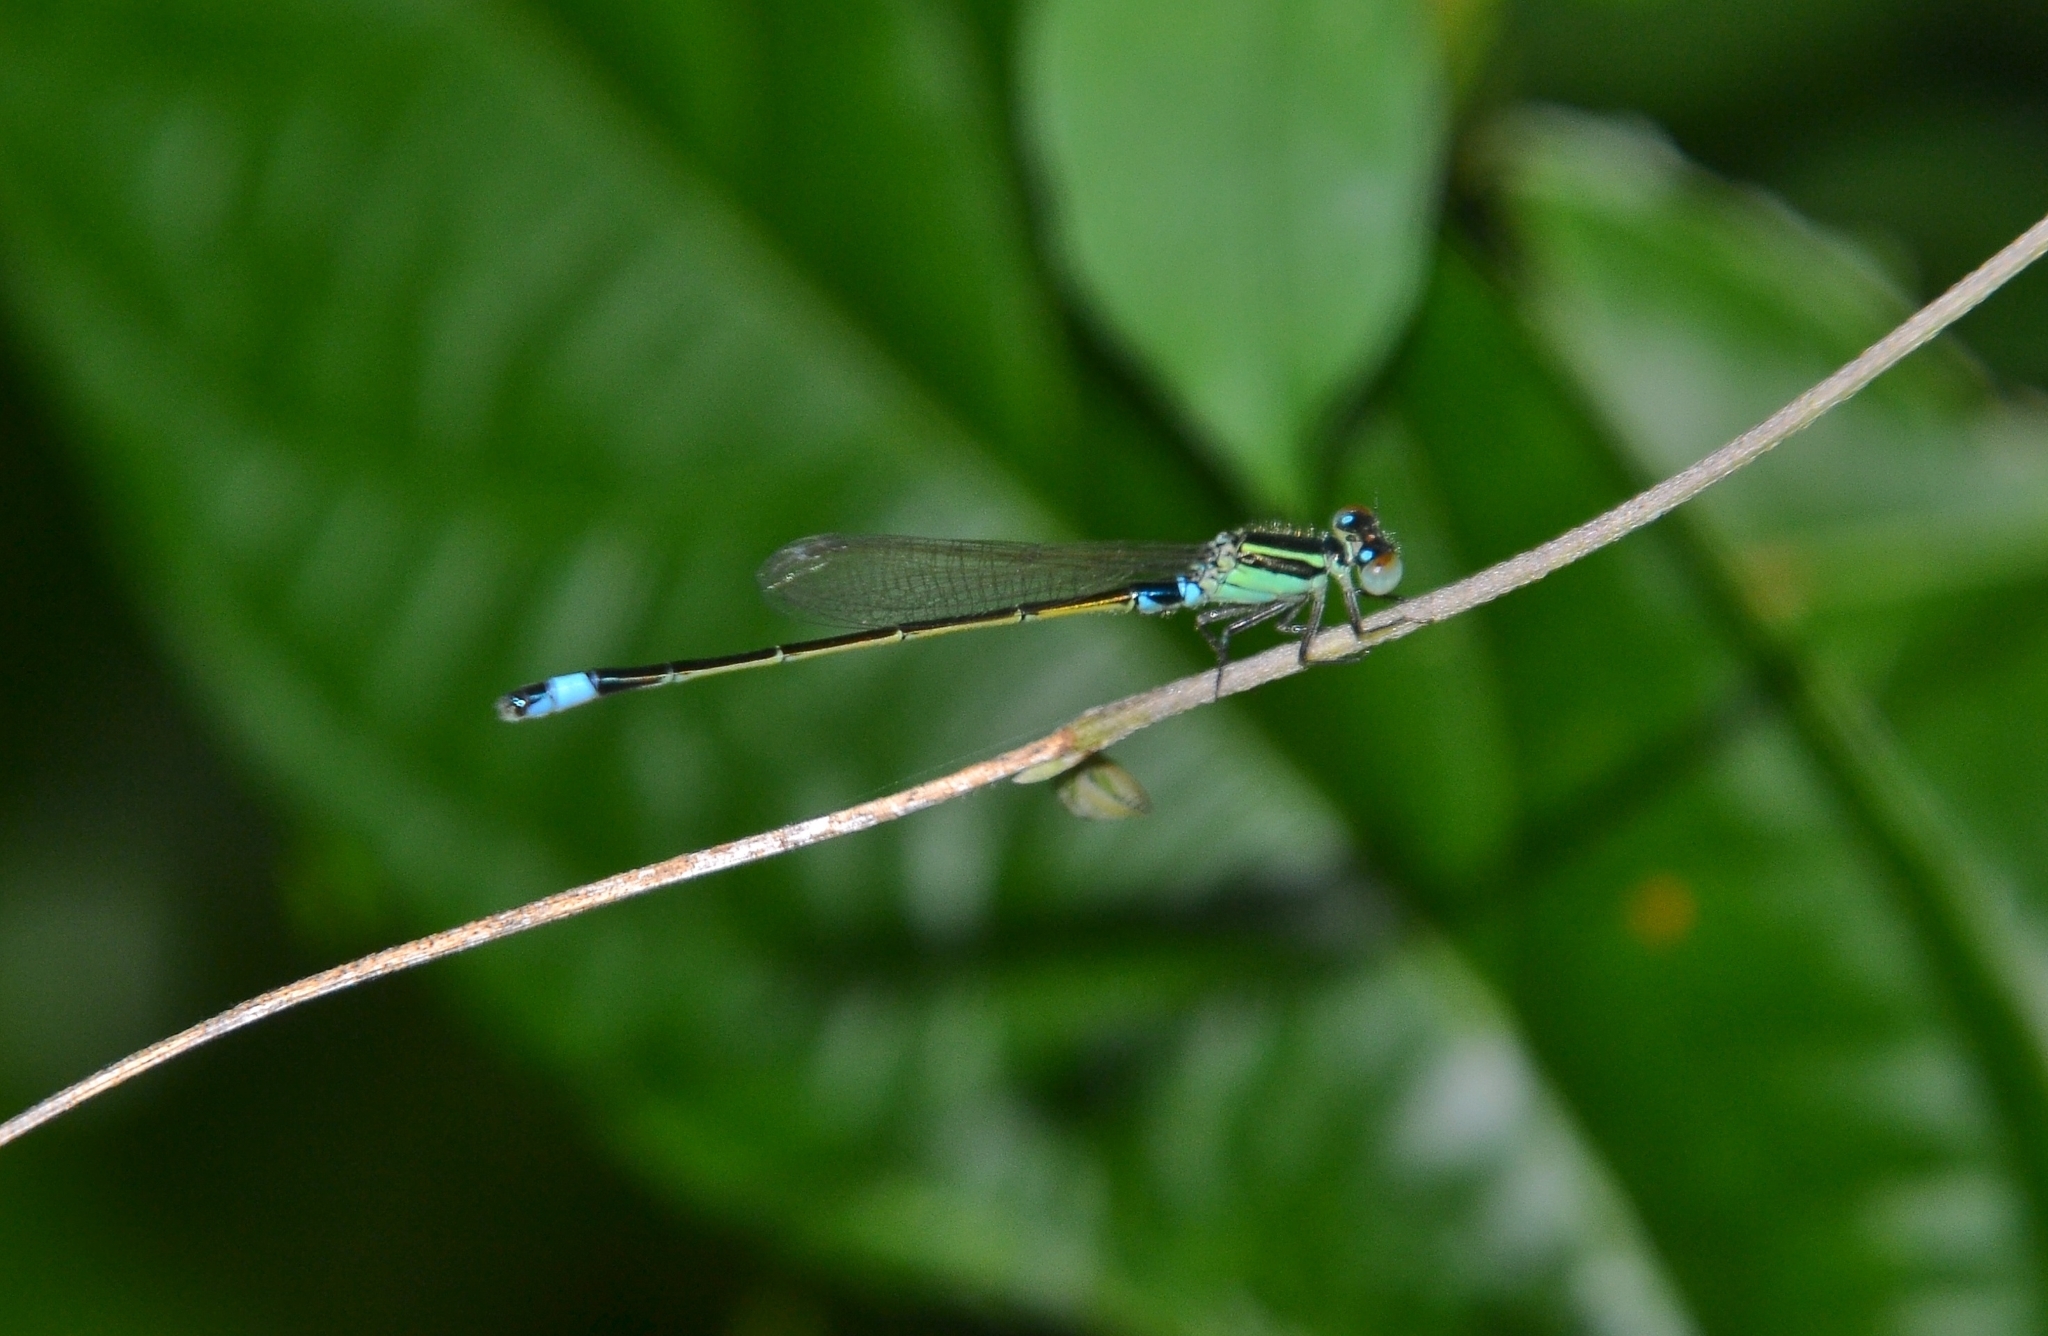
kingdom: Animalia
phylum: Arthropoda
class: Insecta
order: Odonata
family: Coenagrionidae
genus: Ischnura
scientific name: Ischnura senegalensis
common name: Tropical bluetail
